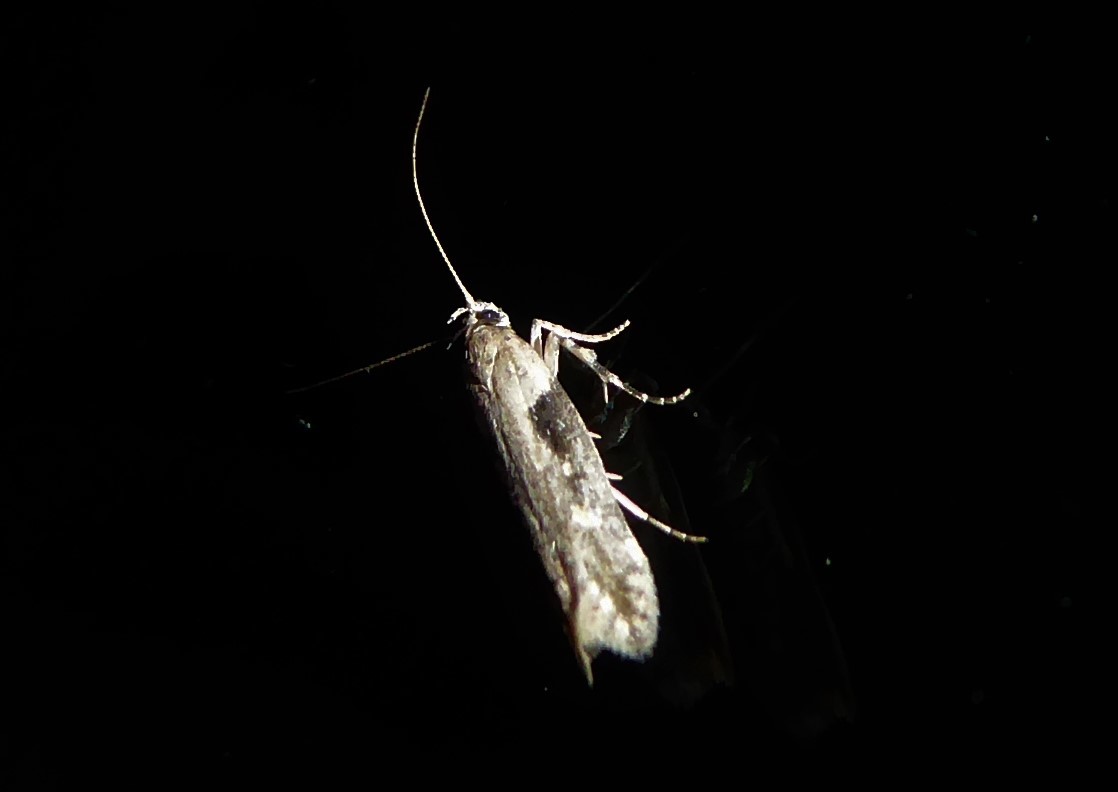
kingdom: Animalia
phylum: Arthropoda
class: Insecta
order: Lepidoptera
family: Gelechiidae
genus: Symmetrischema
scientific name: Symmetrischema tangolias
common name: Moth
